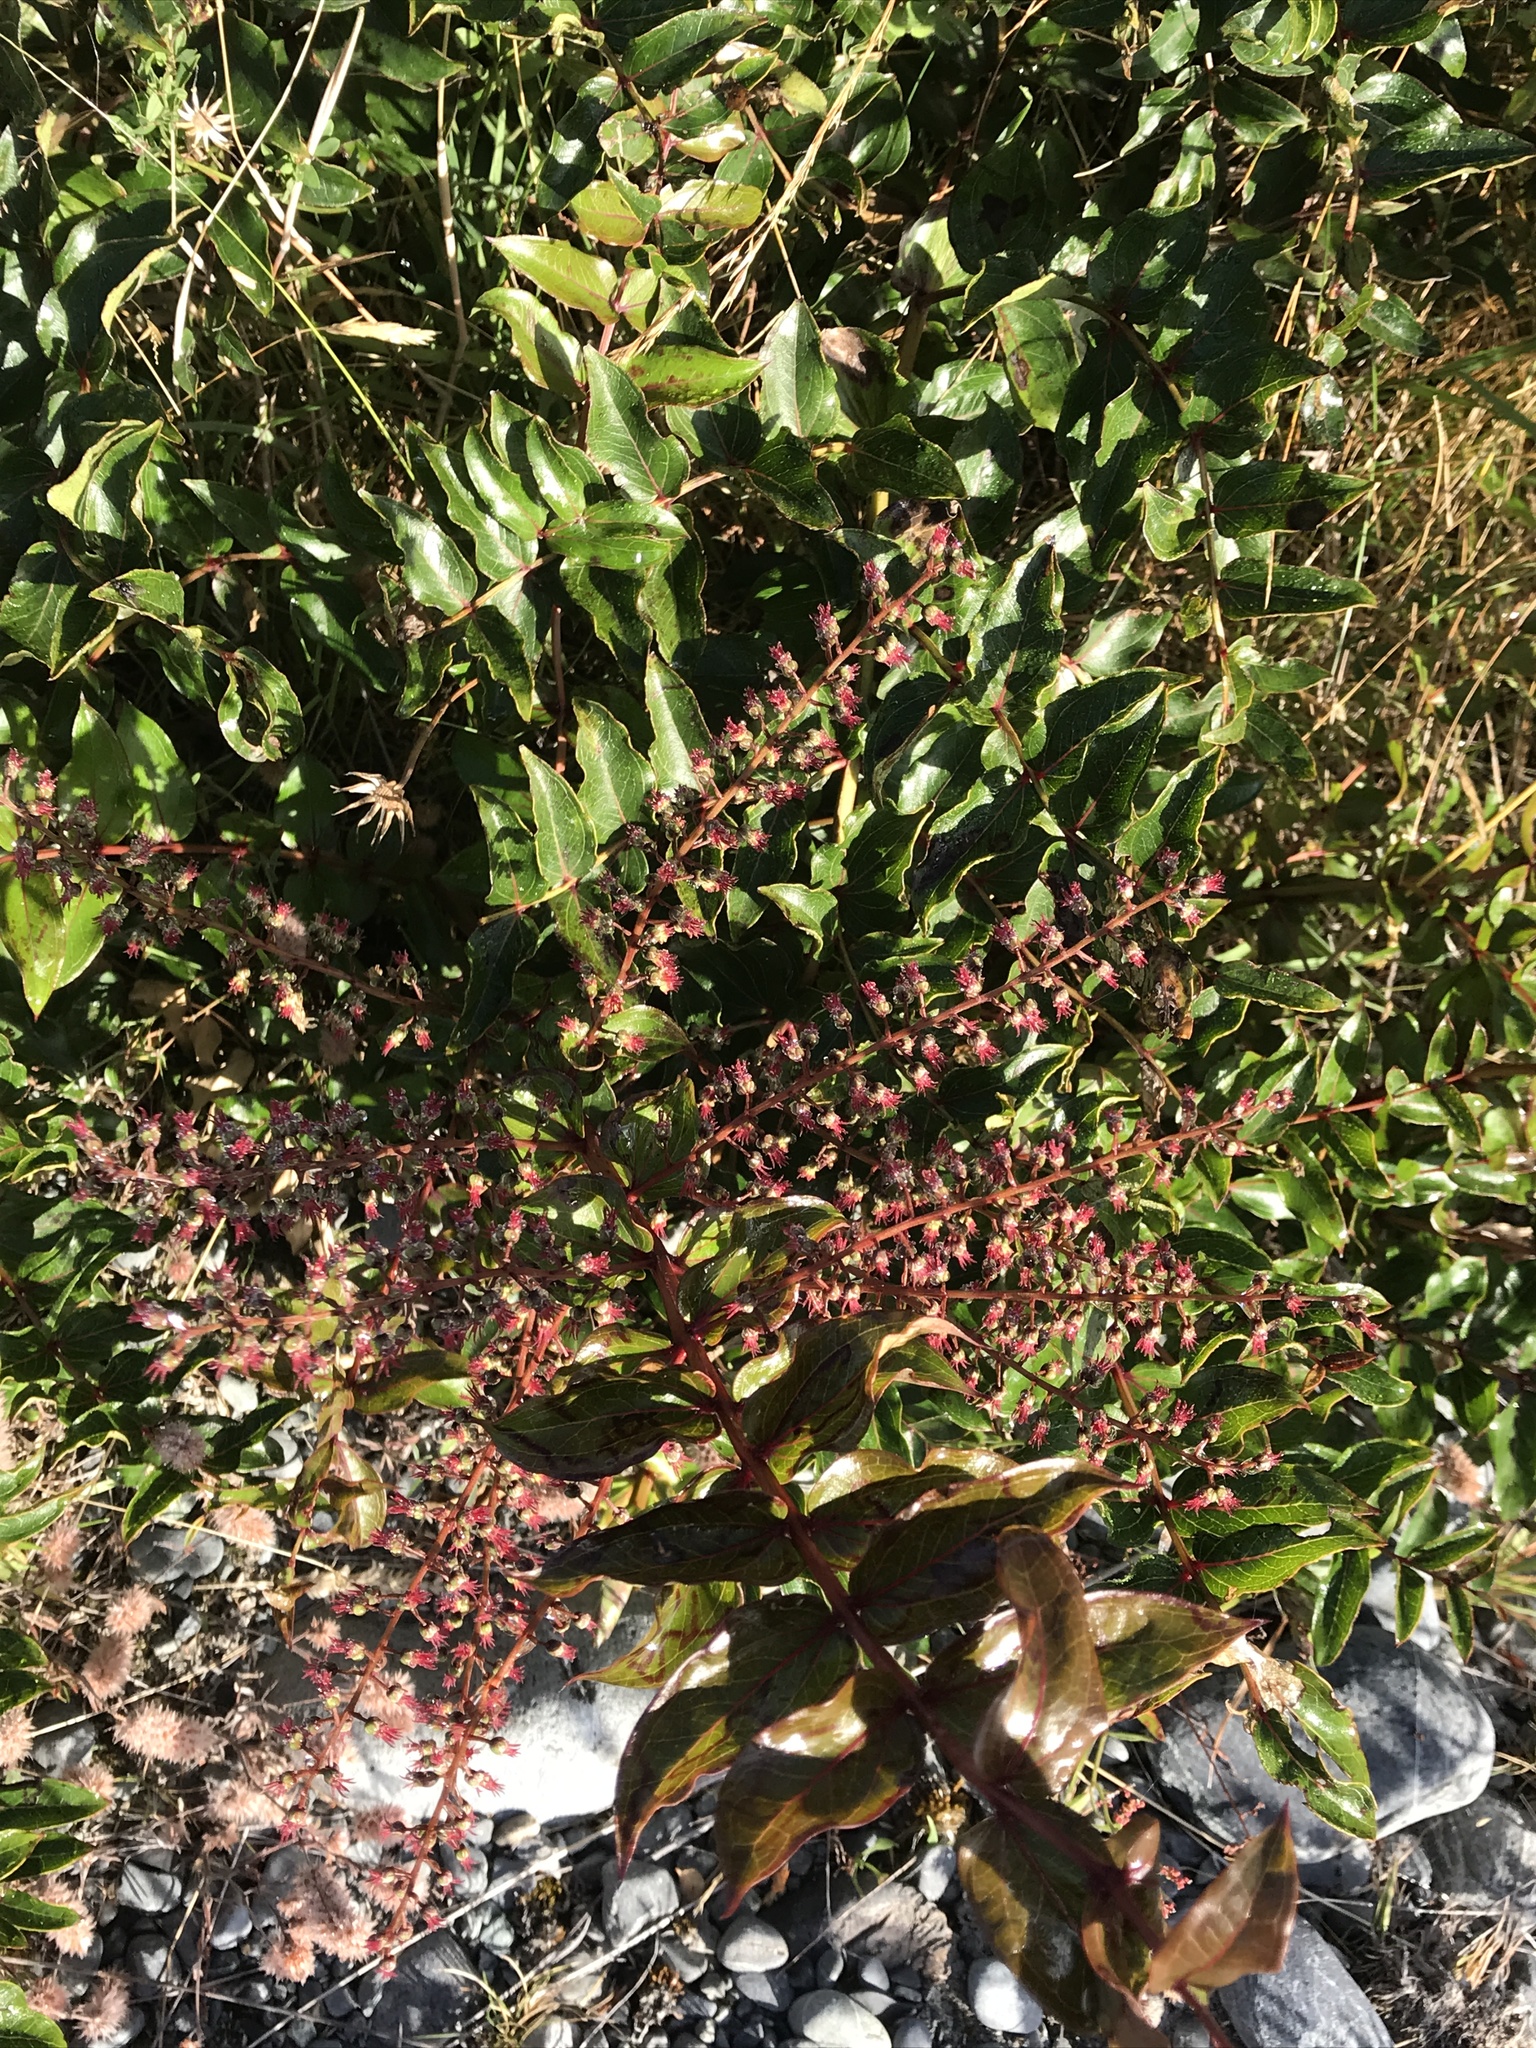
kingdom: Plantae
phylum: Tracheophyta
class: Magnoliopsida
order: Cucurbitales
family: Coriariaceae
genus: Coriaria
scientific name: Coriaria sarmentosa
